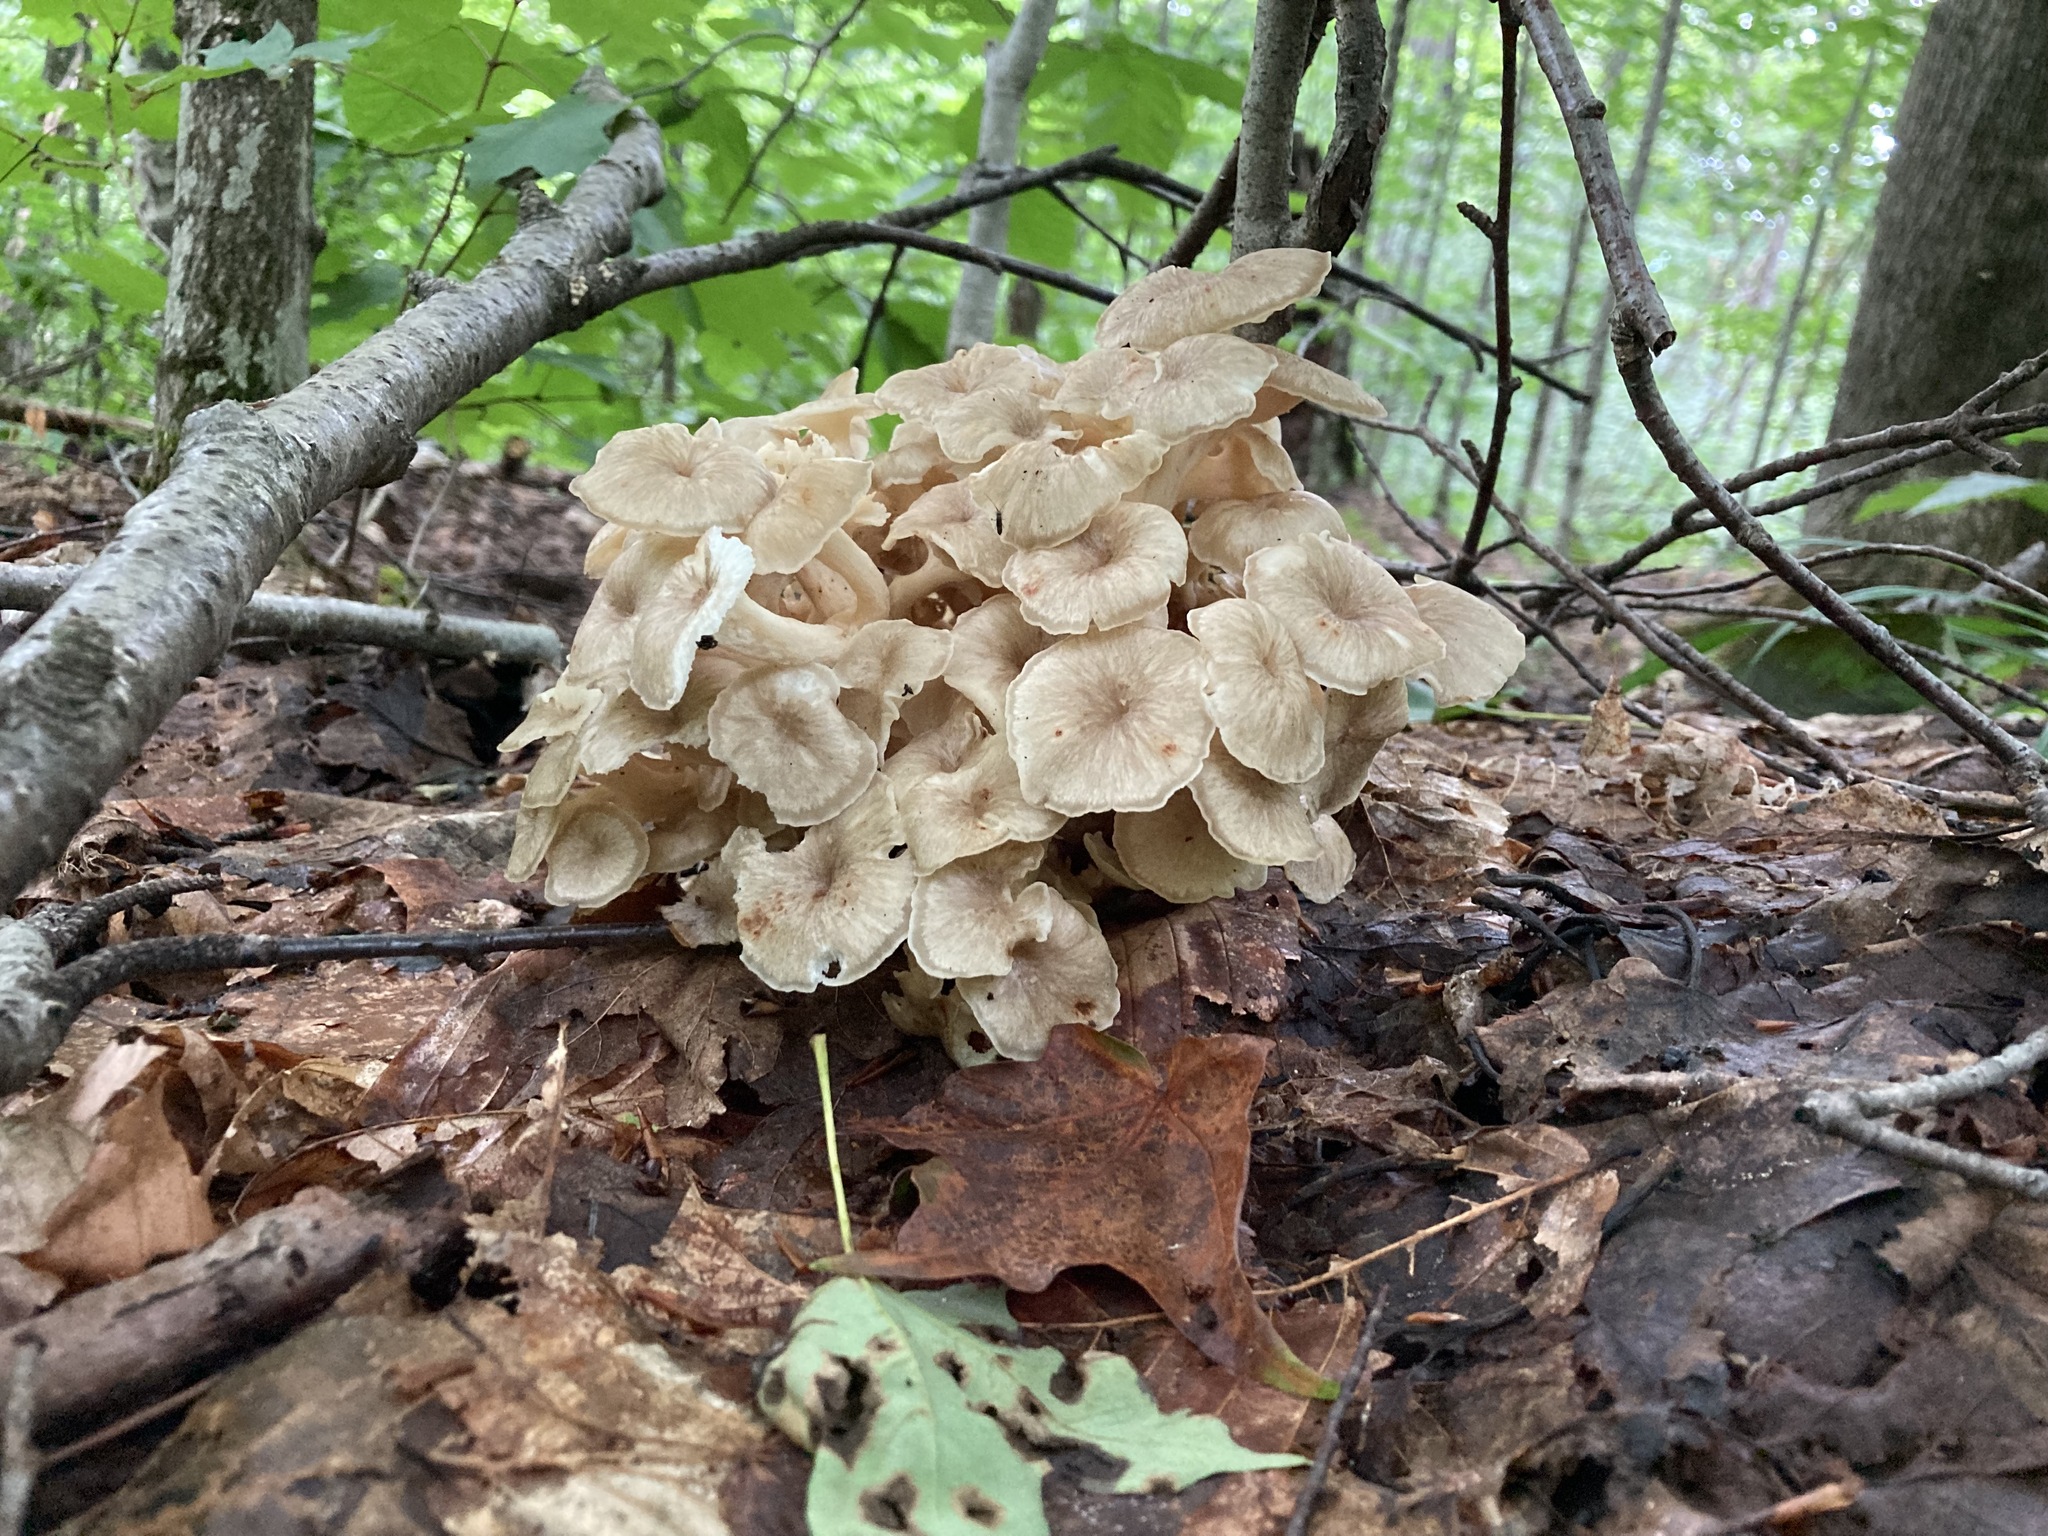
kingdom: Fungi
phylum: Basidiomycota
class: Agaricomycetes
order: Polyporales
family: Polyporaceae
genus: Polyporus
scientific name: Polyporus umbellatus
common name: Umbrella polypore
